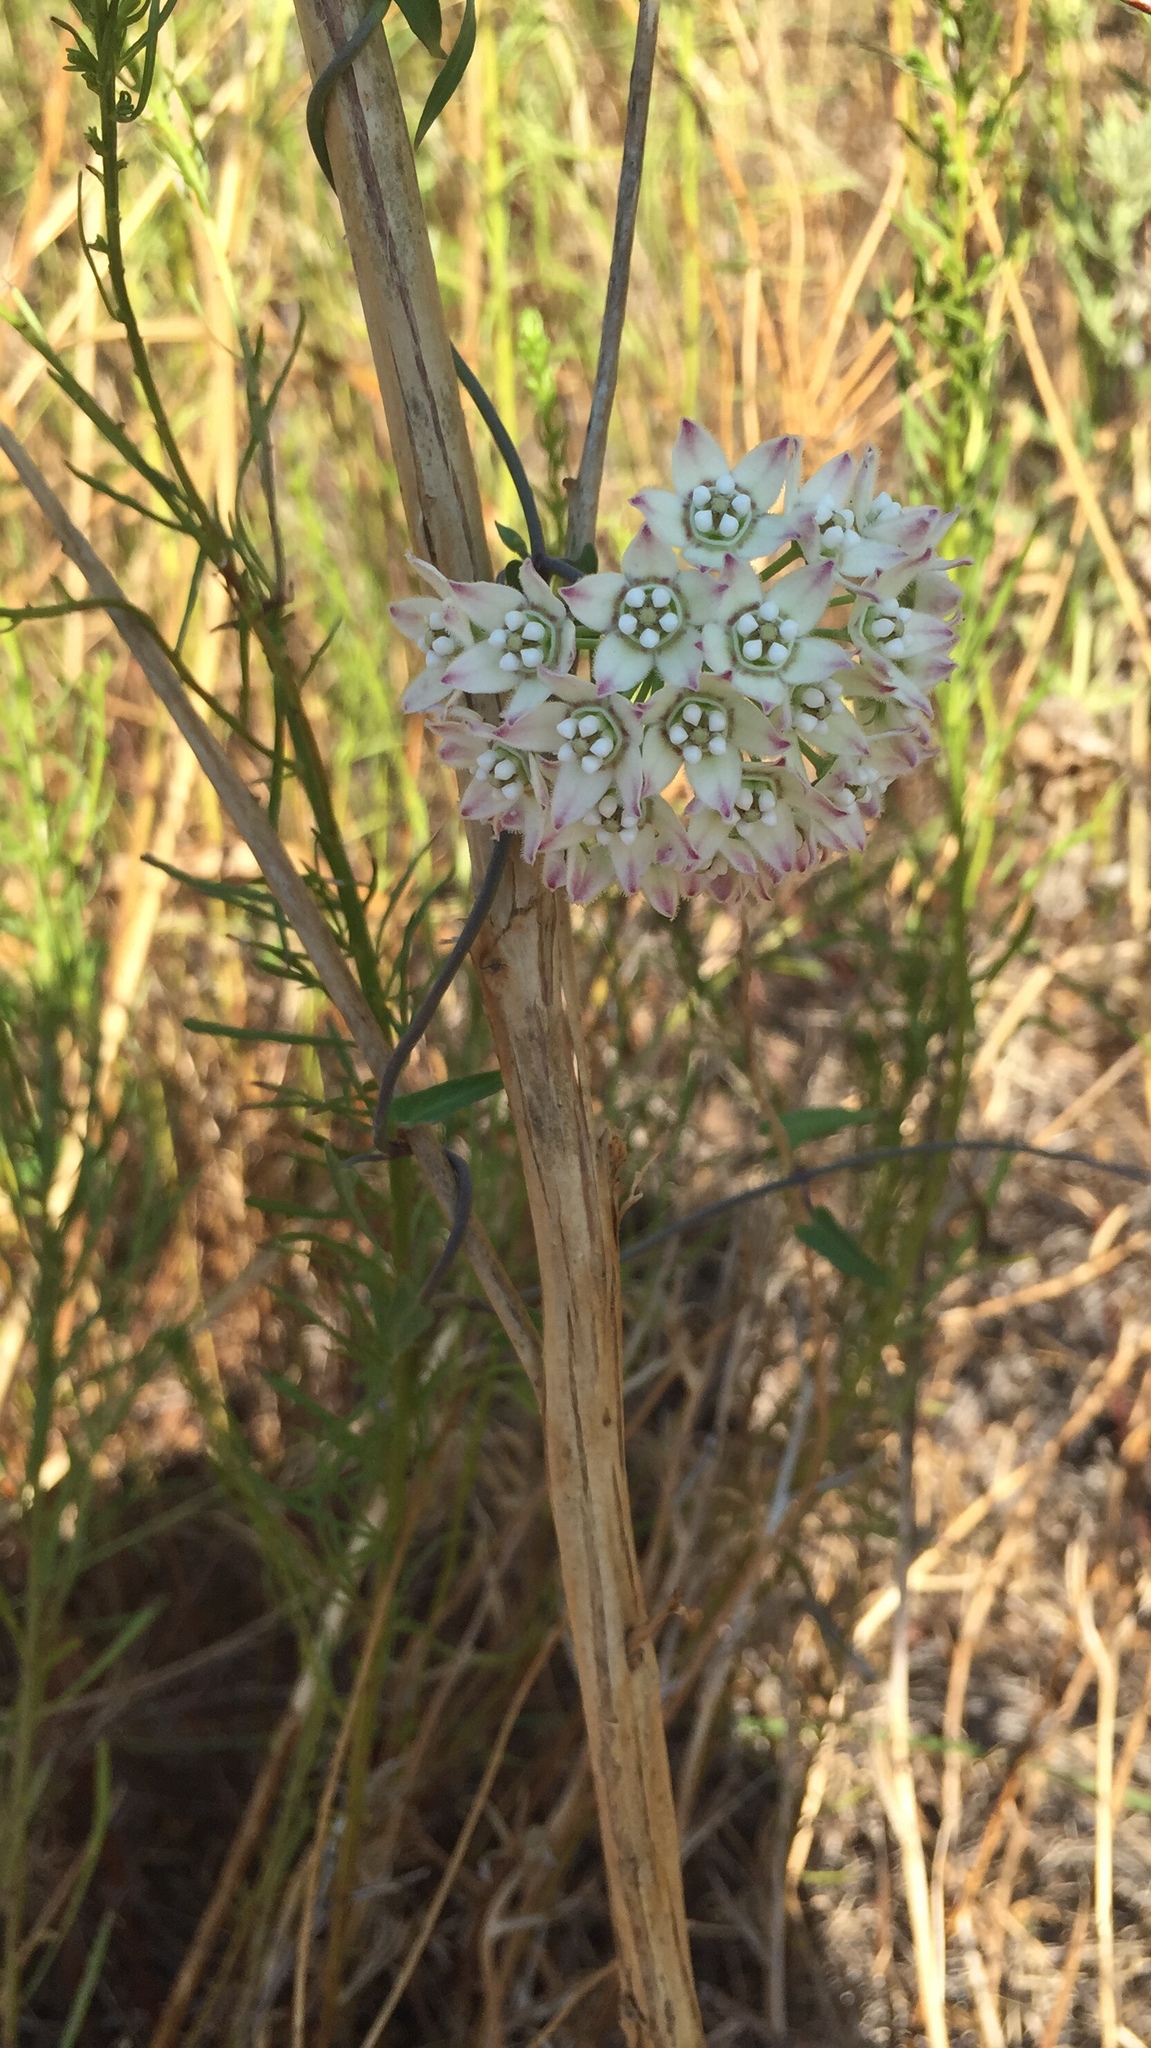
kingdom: Plantae
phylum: Tracheophyta
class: Magnoliopsida
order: Gentianales
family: Apocynaceae
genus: Funastrum
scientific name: Funastrum cynanchoides
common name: Climbing-milkweed
